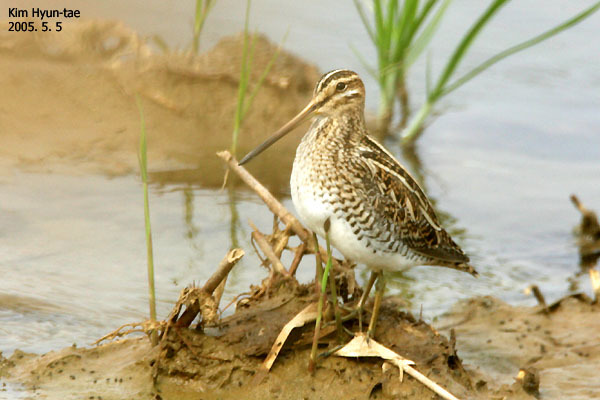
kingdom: Animalia
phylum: Chordata
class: Aves
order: Charadriiformes
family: Scolopacidae
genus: Gallinago
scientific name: Gallinago gallinago
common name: Common snipe
